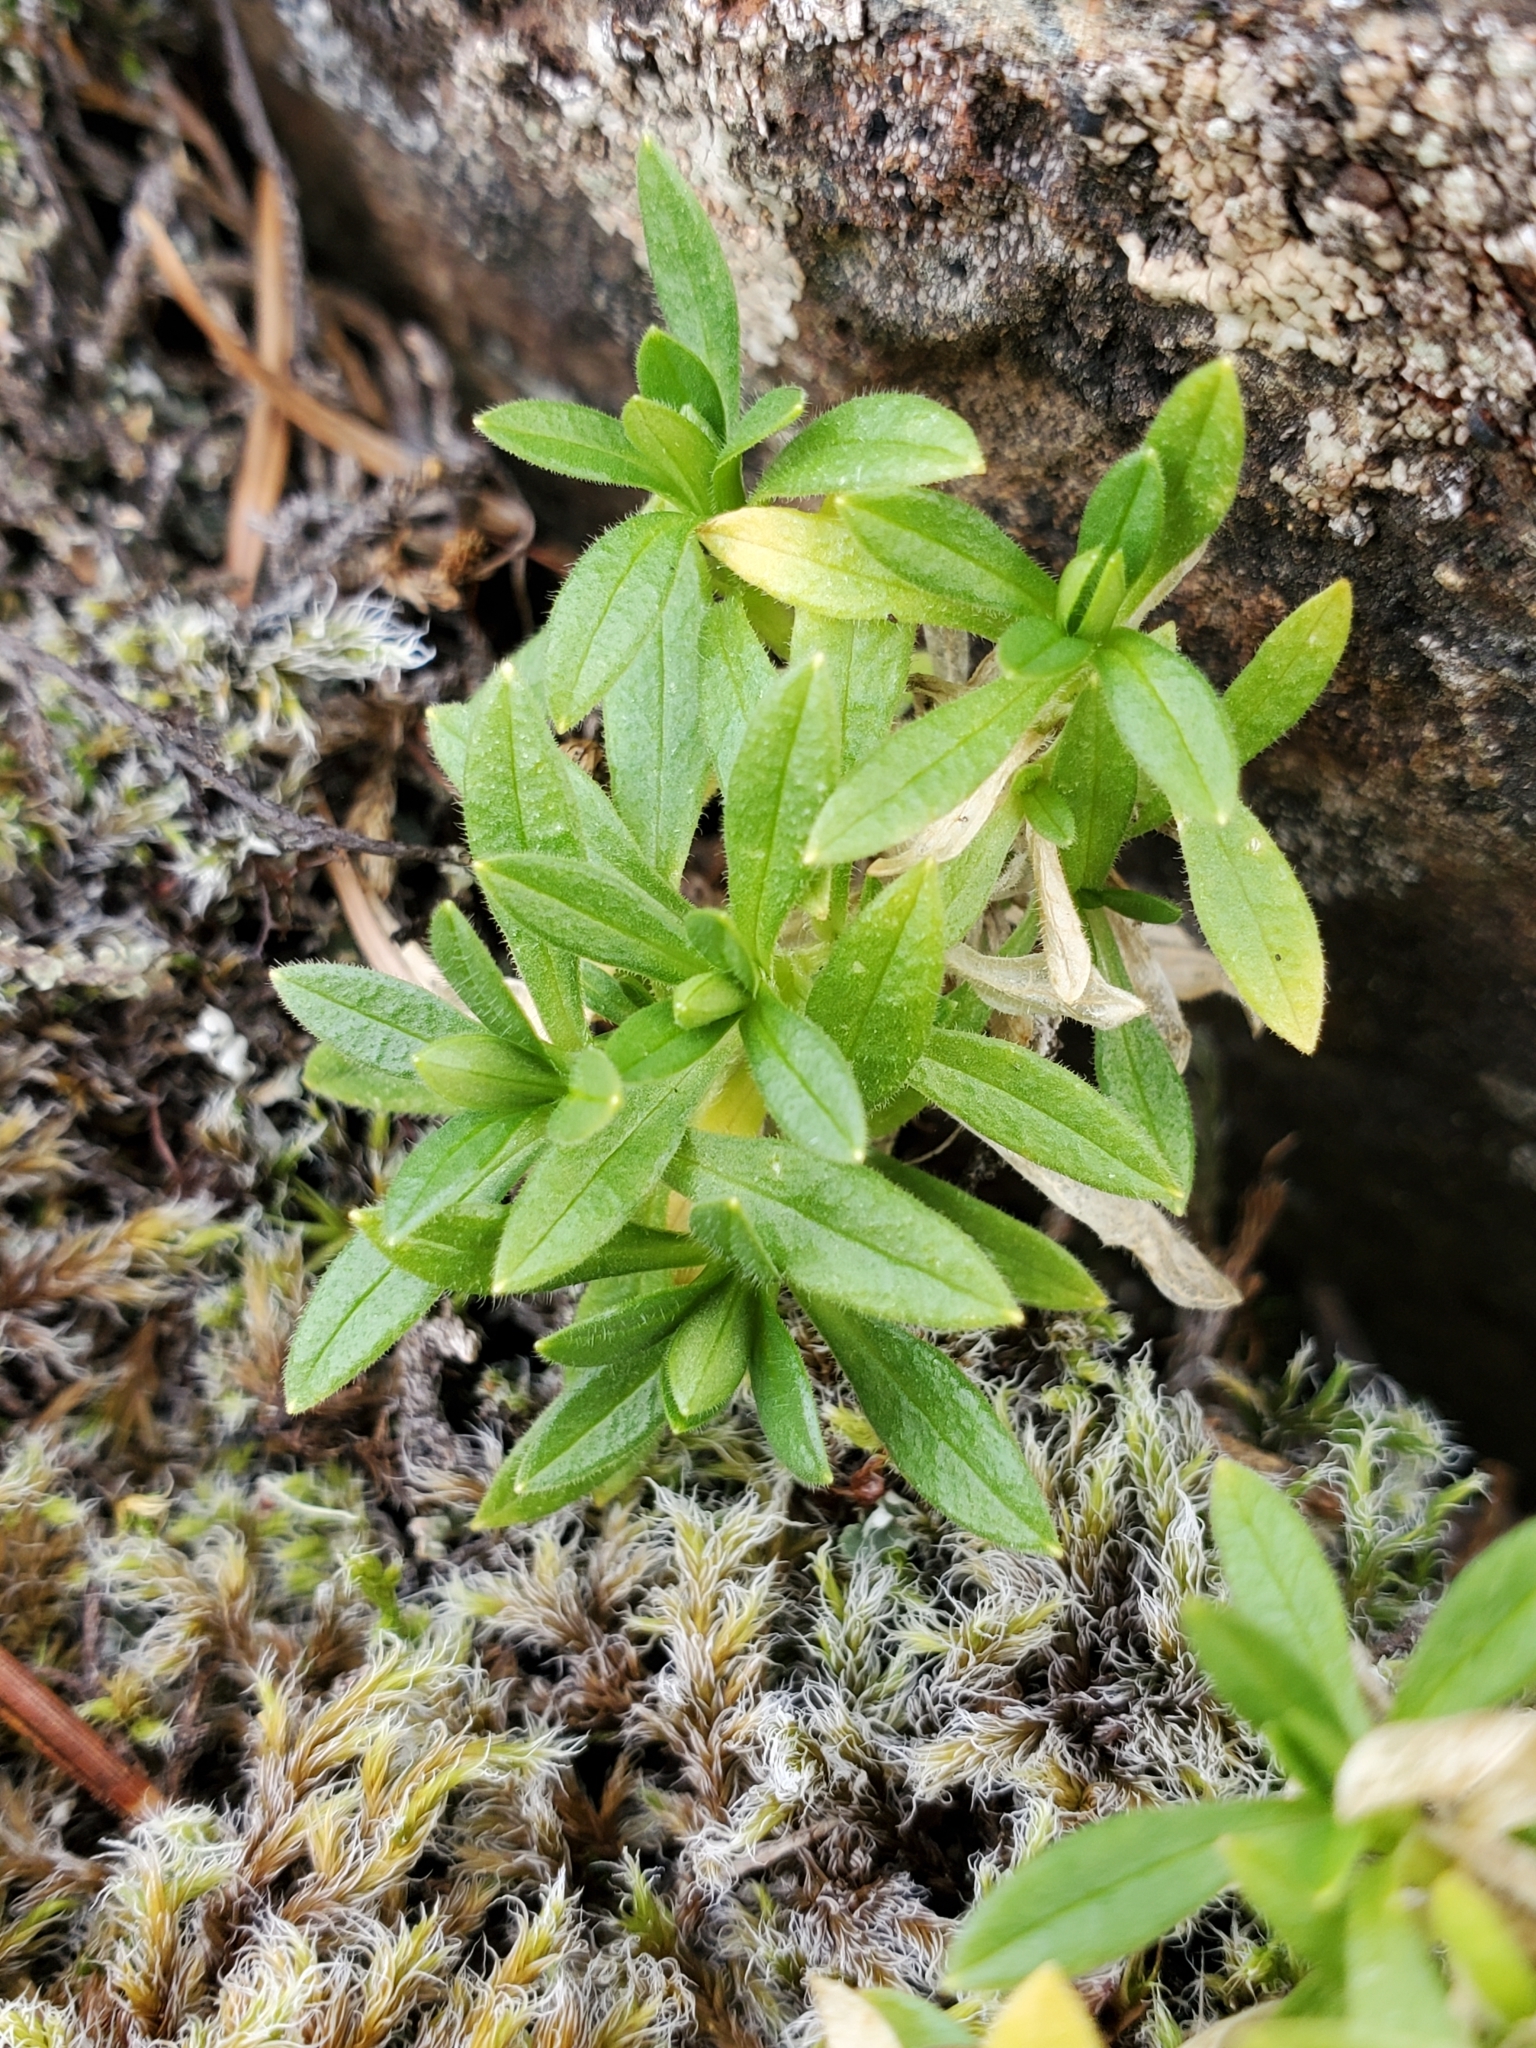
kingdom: Plantae
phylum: Tracheophyta
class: Magnoliopsida
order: Caryophyllales
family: Caryophyllaceae
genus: Cerastium
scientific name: Cerastium arvense
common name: Field mouse-ear
